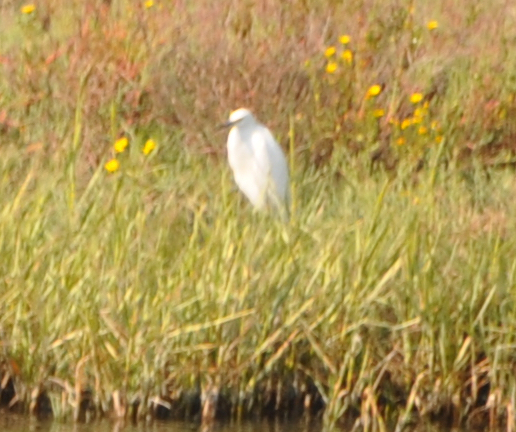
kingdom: Animalia
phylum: Chordata
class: Aves
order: Pelecaniformes
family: Ardeidae
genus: Egretta
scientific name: Egretta thula
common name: Snowy egret
